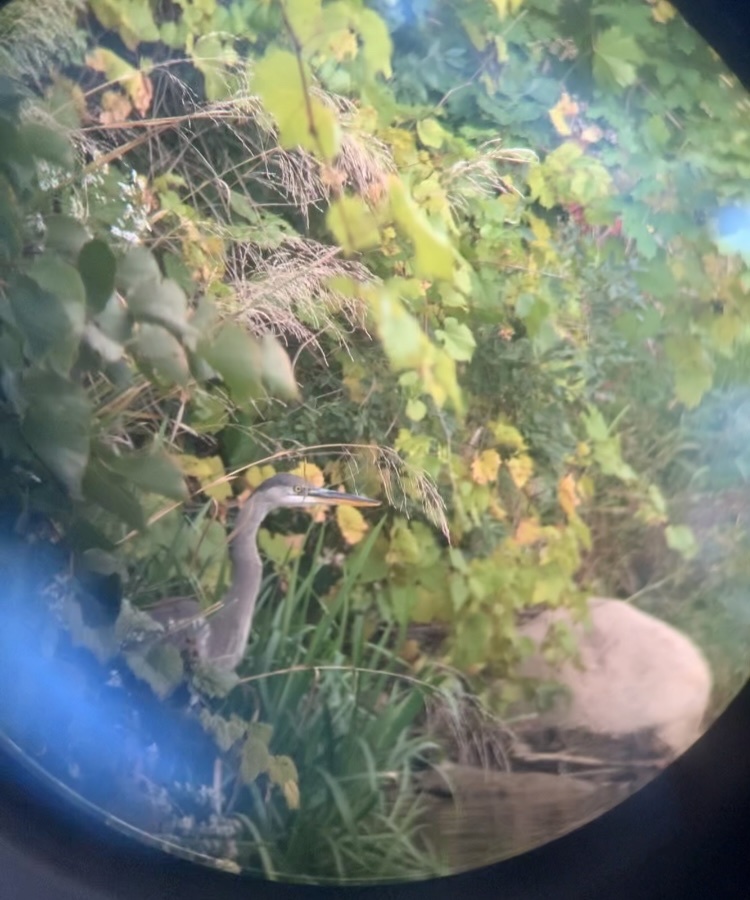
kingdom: Animalia
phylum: Chordata
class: Aves
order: Pelecaniformes
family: Ardeidae
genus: Ardea
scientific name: Ardea herodias
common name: Great blue heron
